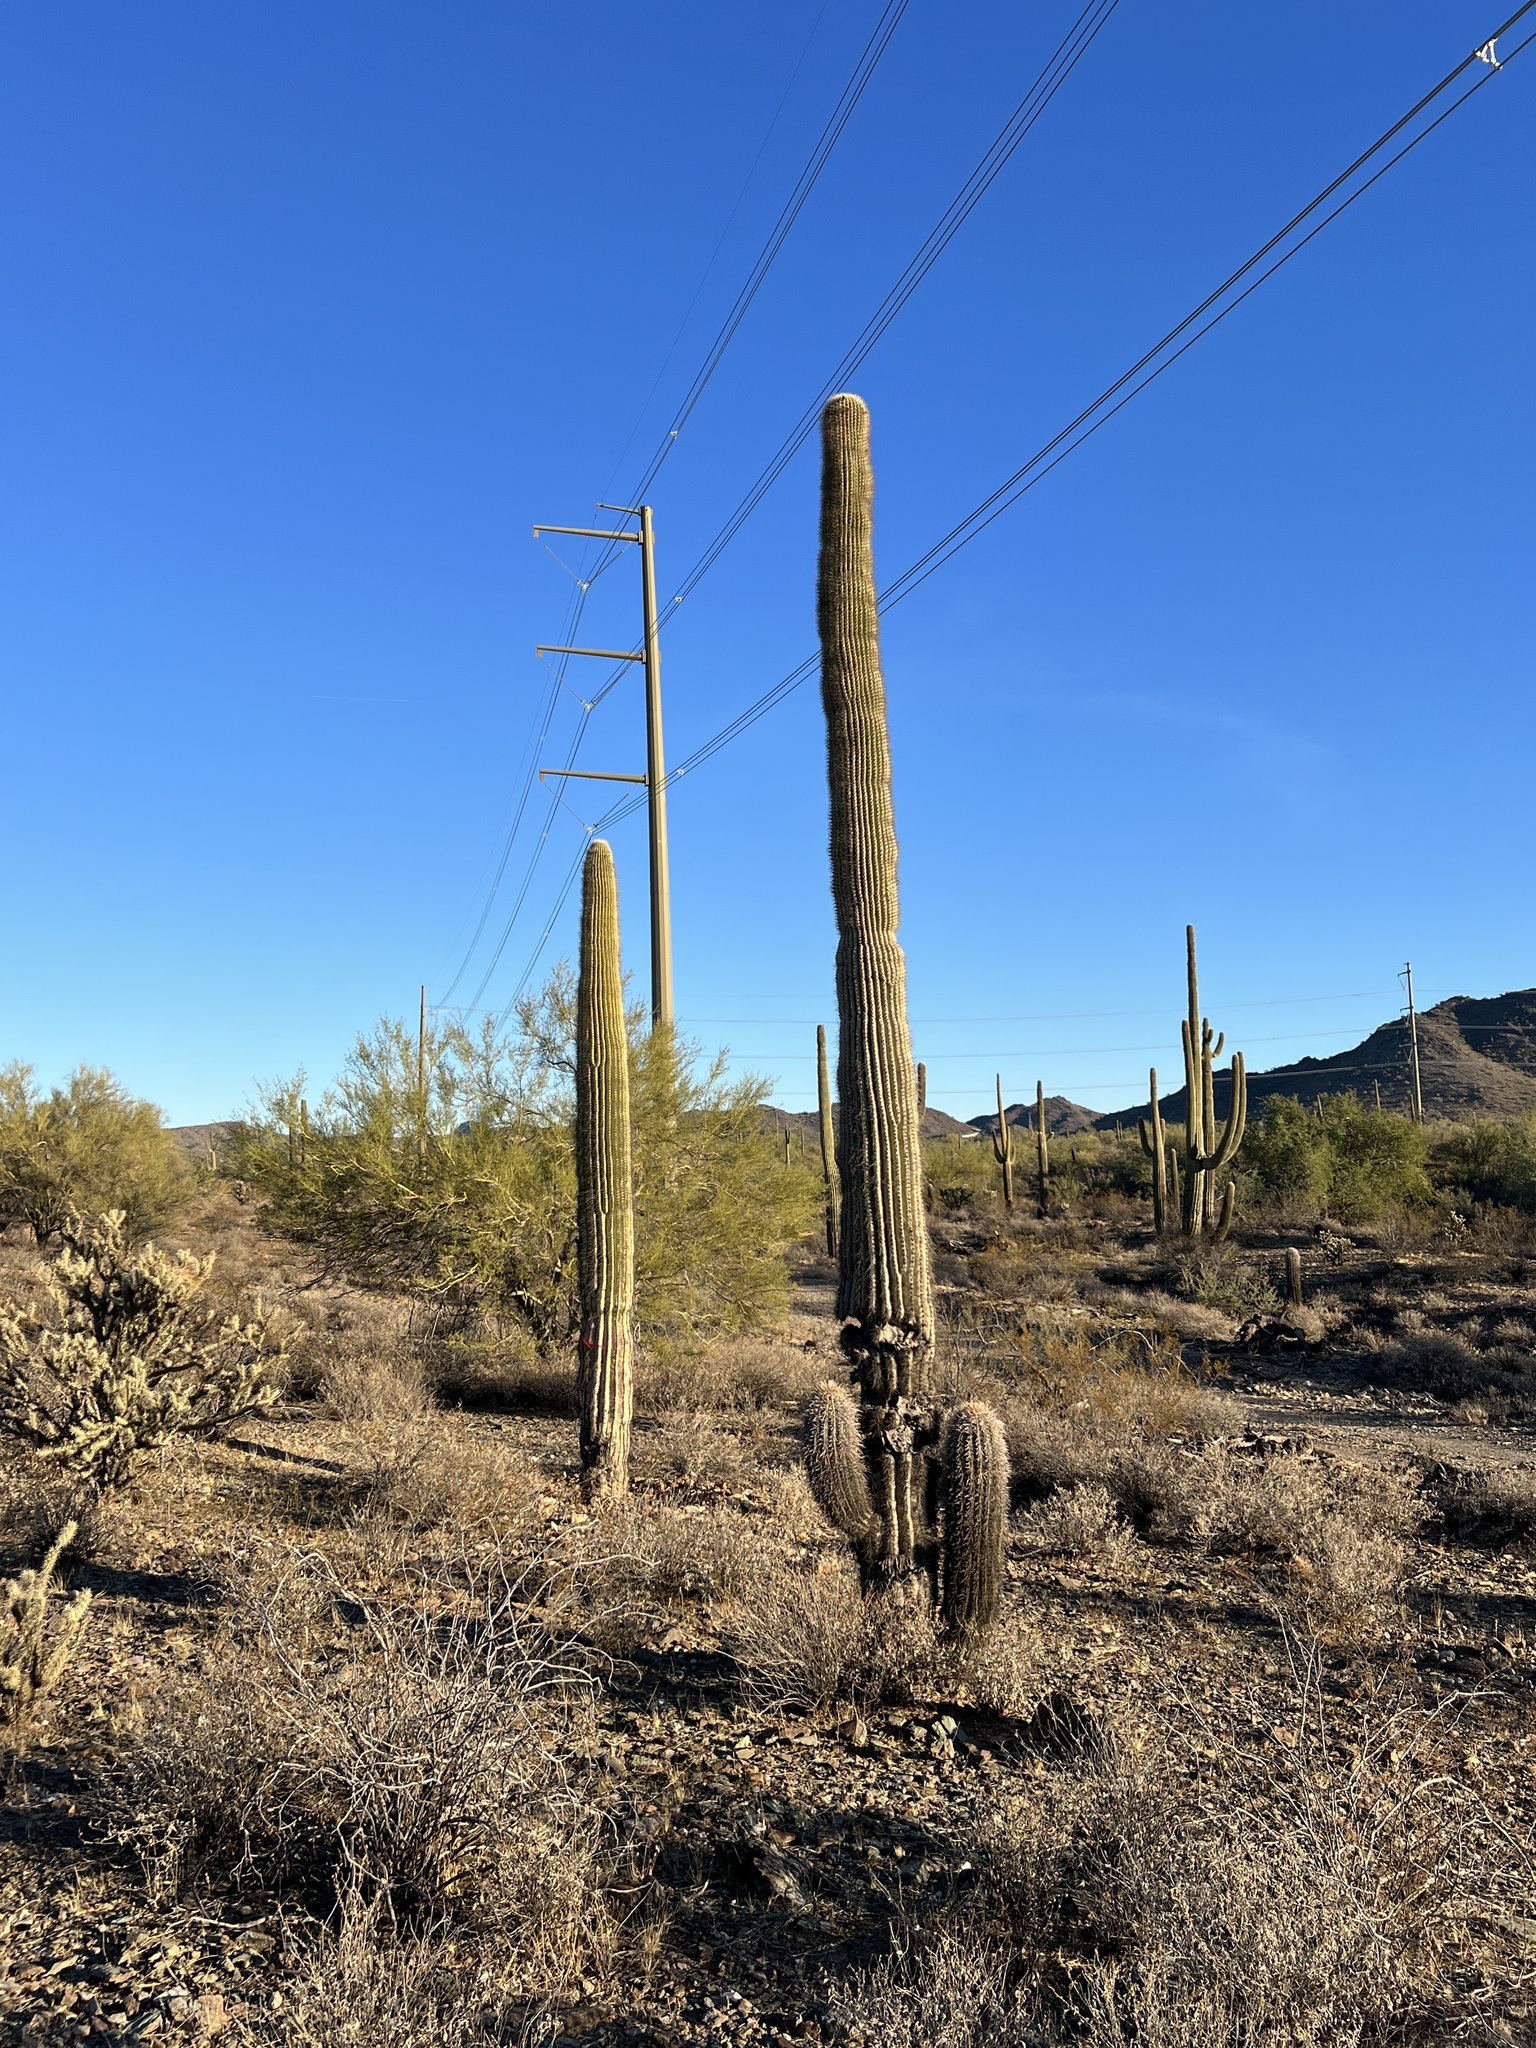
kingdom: Plantae
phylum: Tracheophyta
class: Magnoliopsida
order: Caryophyllales
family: Cactaceae
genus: Carnegiea
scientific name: Carnegiea gigantea
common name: Saguaro
